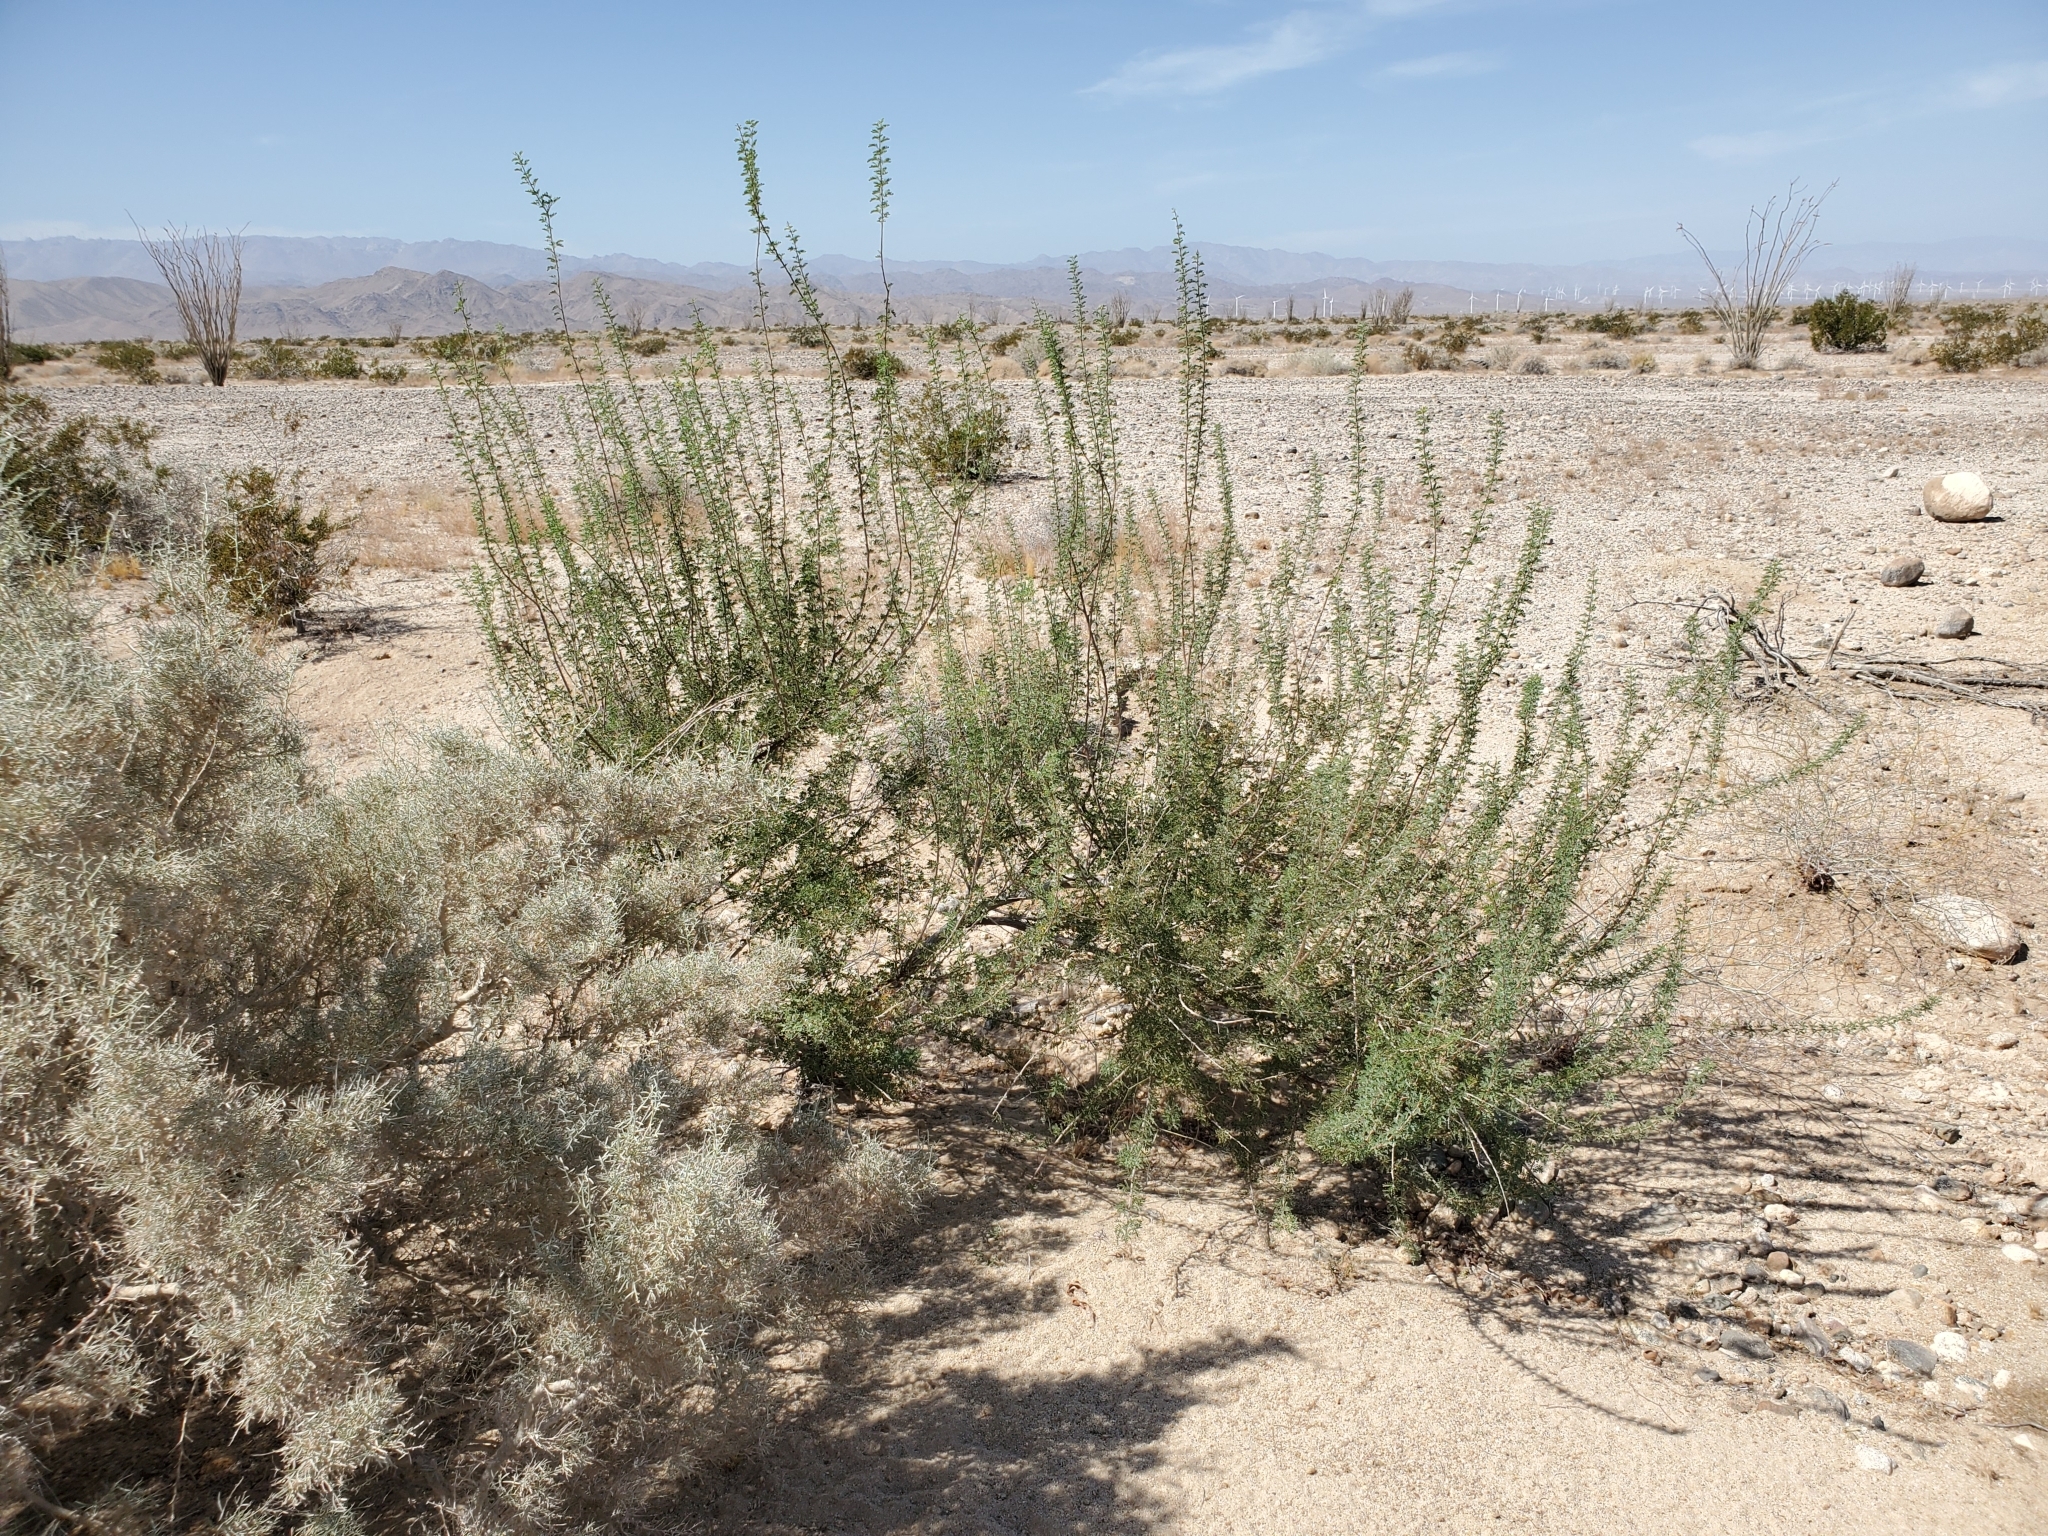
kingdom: Plantae
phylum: Tracheophyta
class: Magnoliopsida
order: Fabales
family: Fabaceae
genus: Senegalia
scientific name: Senegalia greggii
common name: Texas-mimosa
